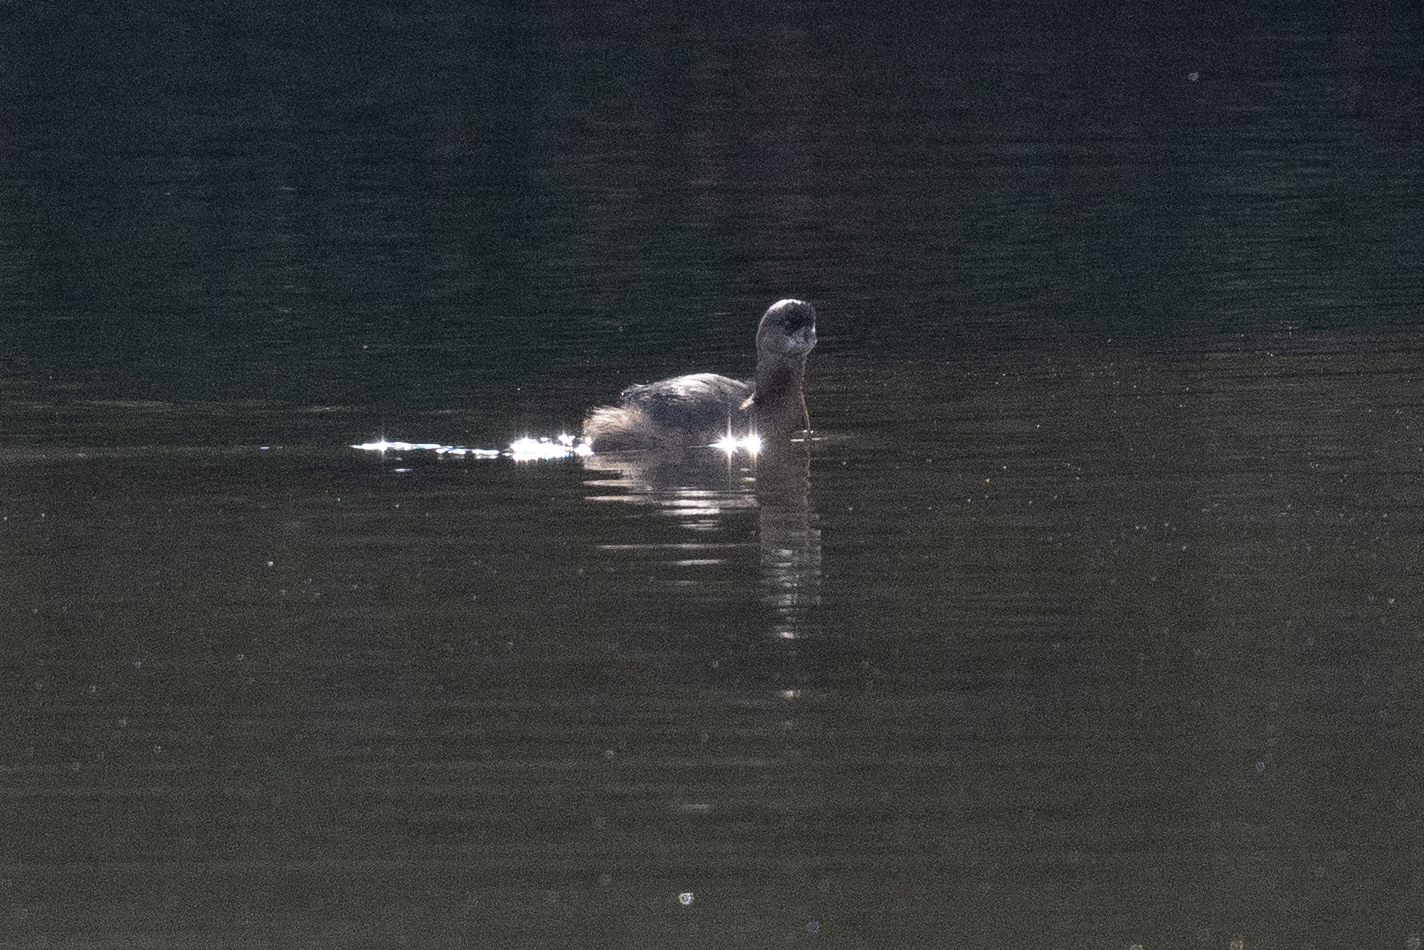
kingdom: Animalia
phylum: Chordata
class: Aves
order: Podicipediformes
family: Podicipedidae
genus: Podilymbus
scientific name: Podilymbus podiceps
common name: Pied-billed grebe
